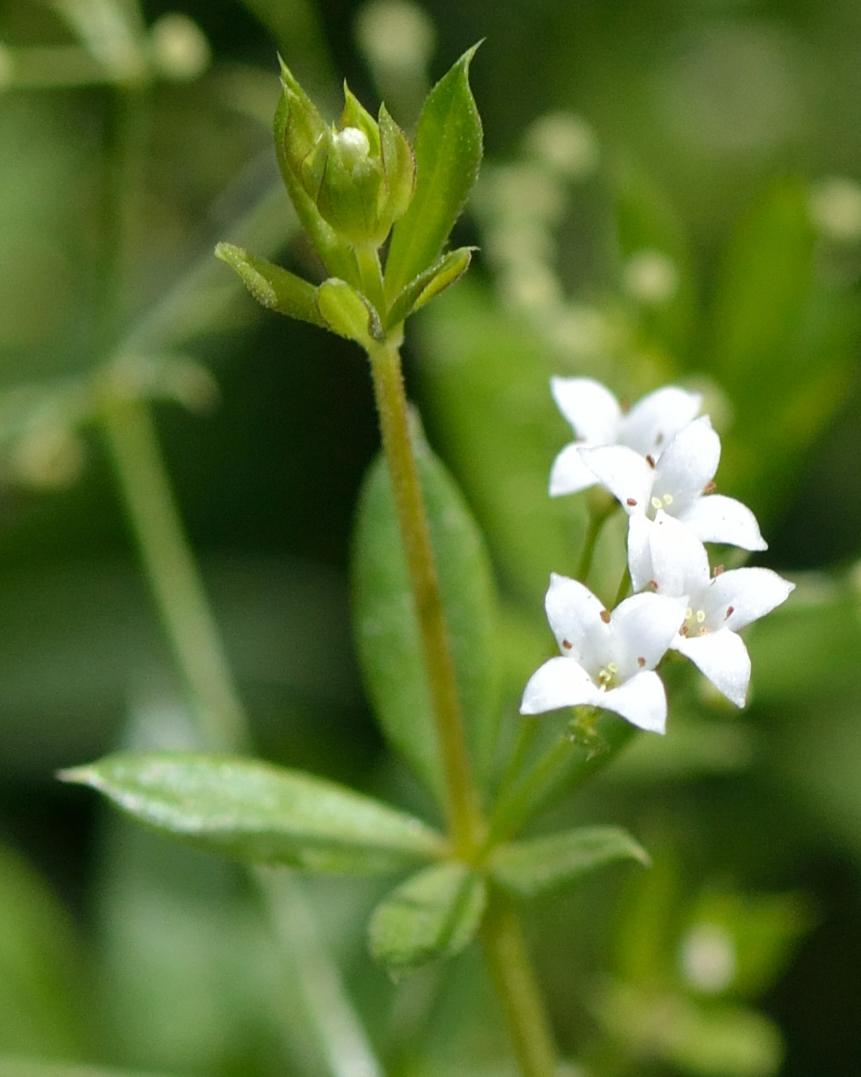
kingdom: Plantae
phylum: Tracheophyta
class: Magnoliopsida
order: Gentianales
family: Rubiaceae
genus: Galium
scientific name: Galium uliginosum
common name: Fen bedstraw
